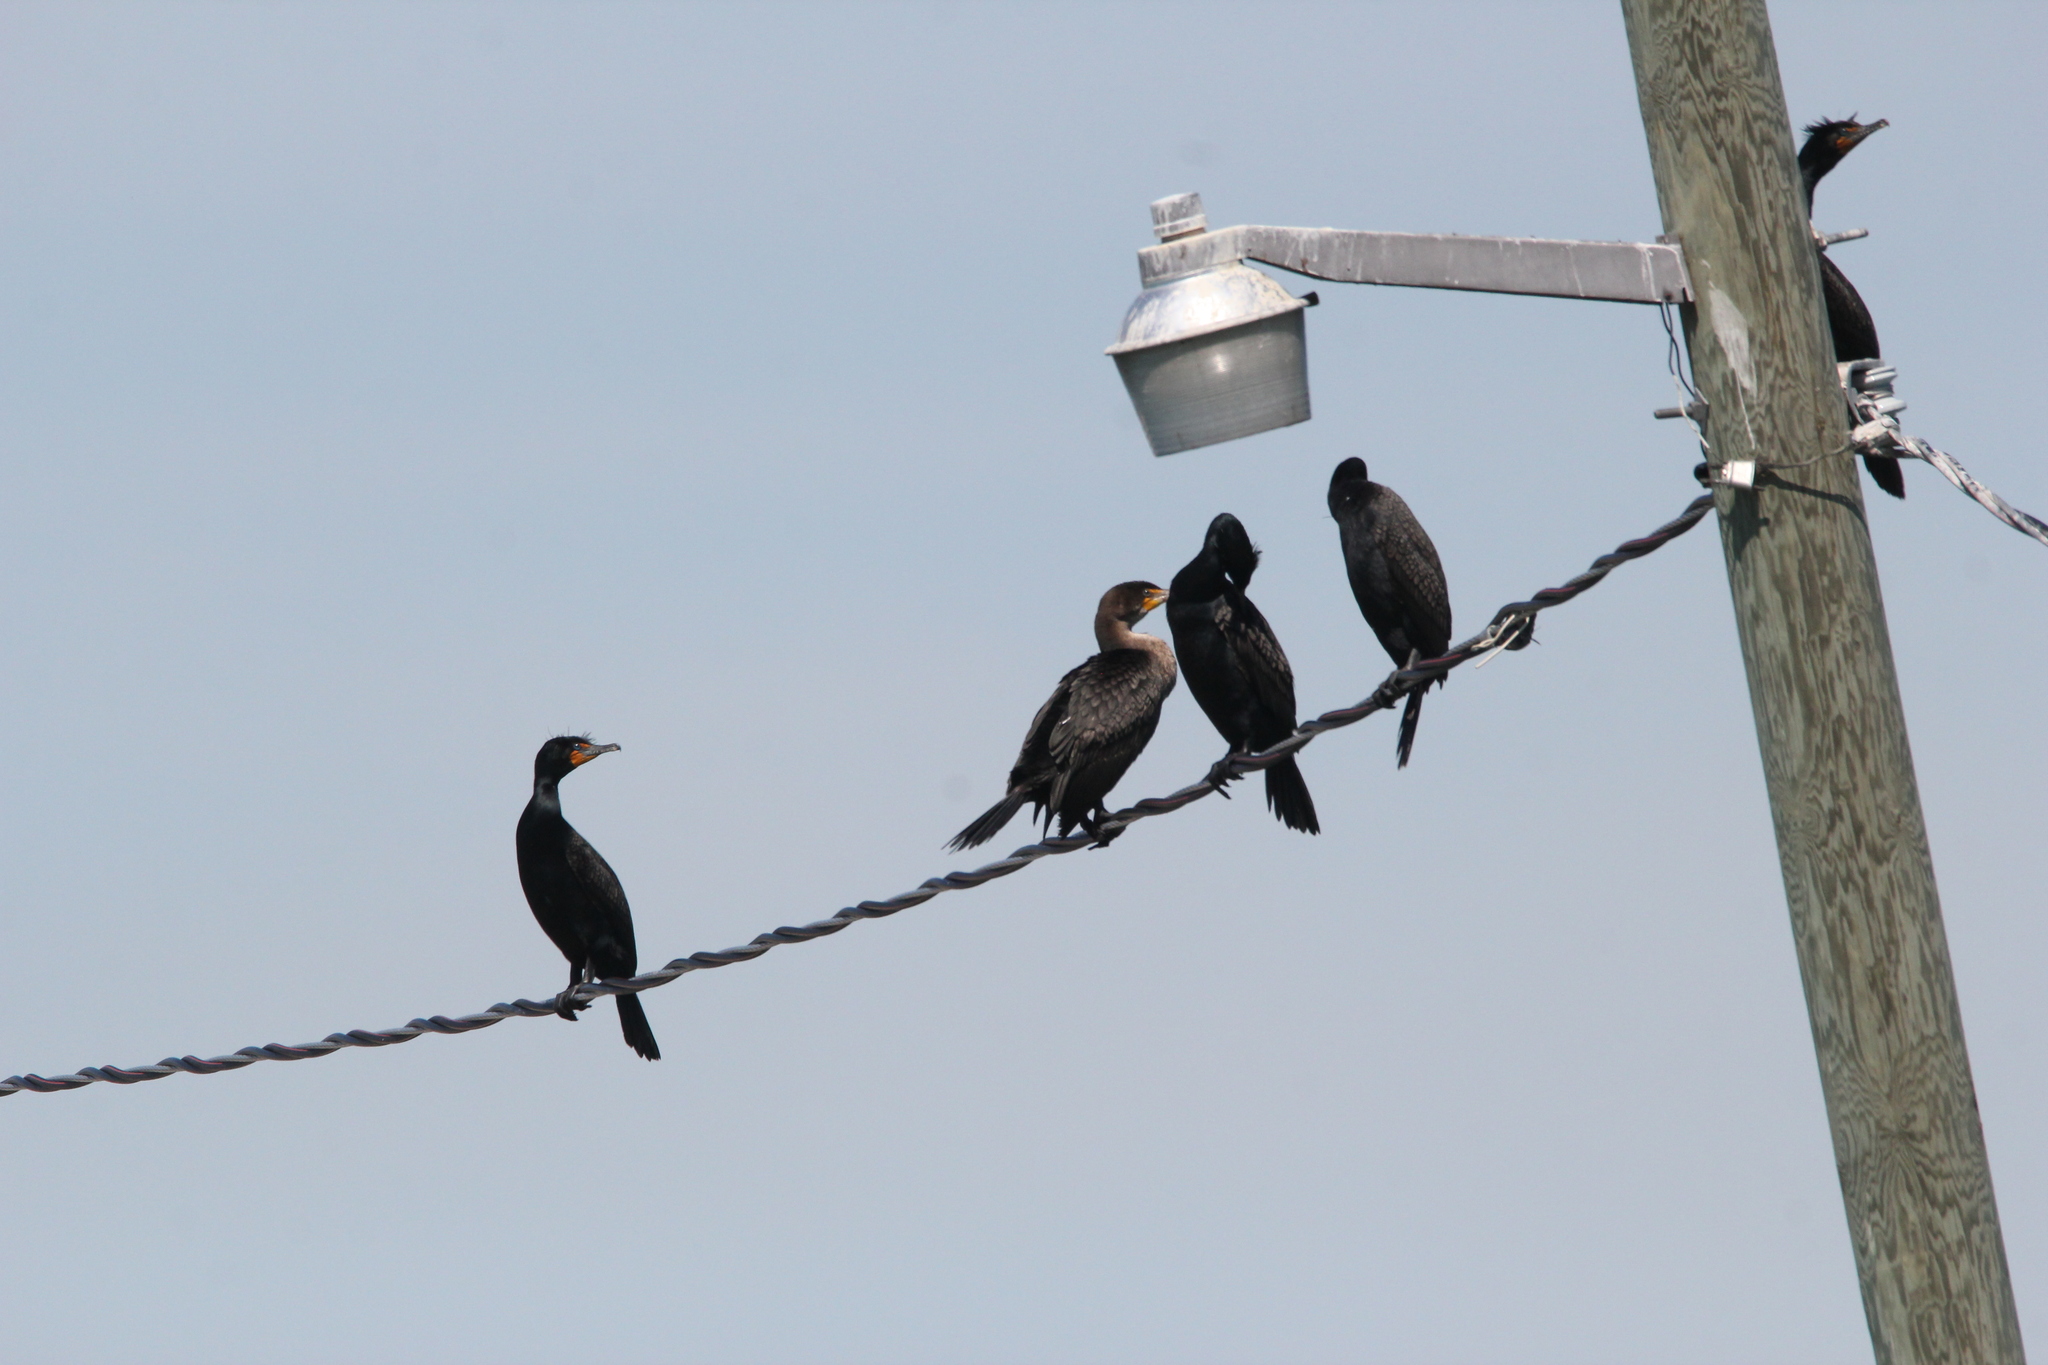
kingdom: Animalia
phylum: Chordata
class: Aves
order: Suliformes
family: Phalacrocoracidae
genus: Phalacrocorax
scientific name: Phalacrocorax auritus
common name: Double-crested cormorant
